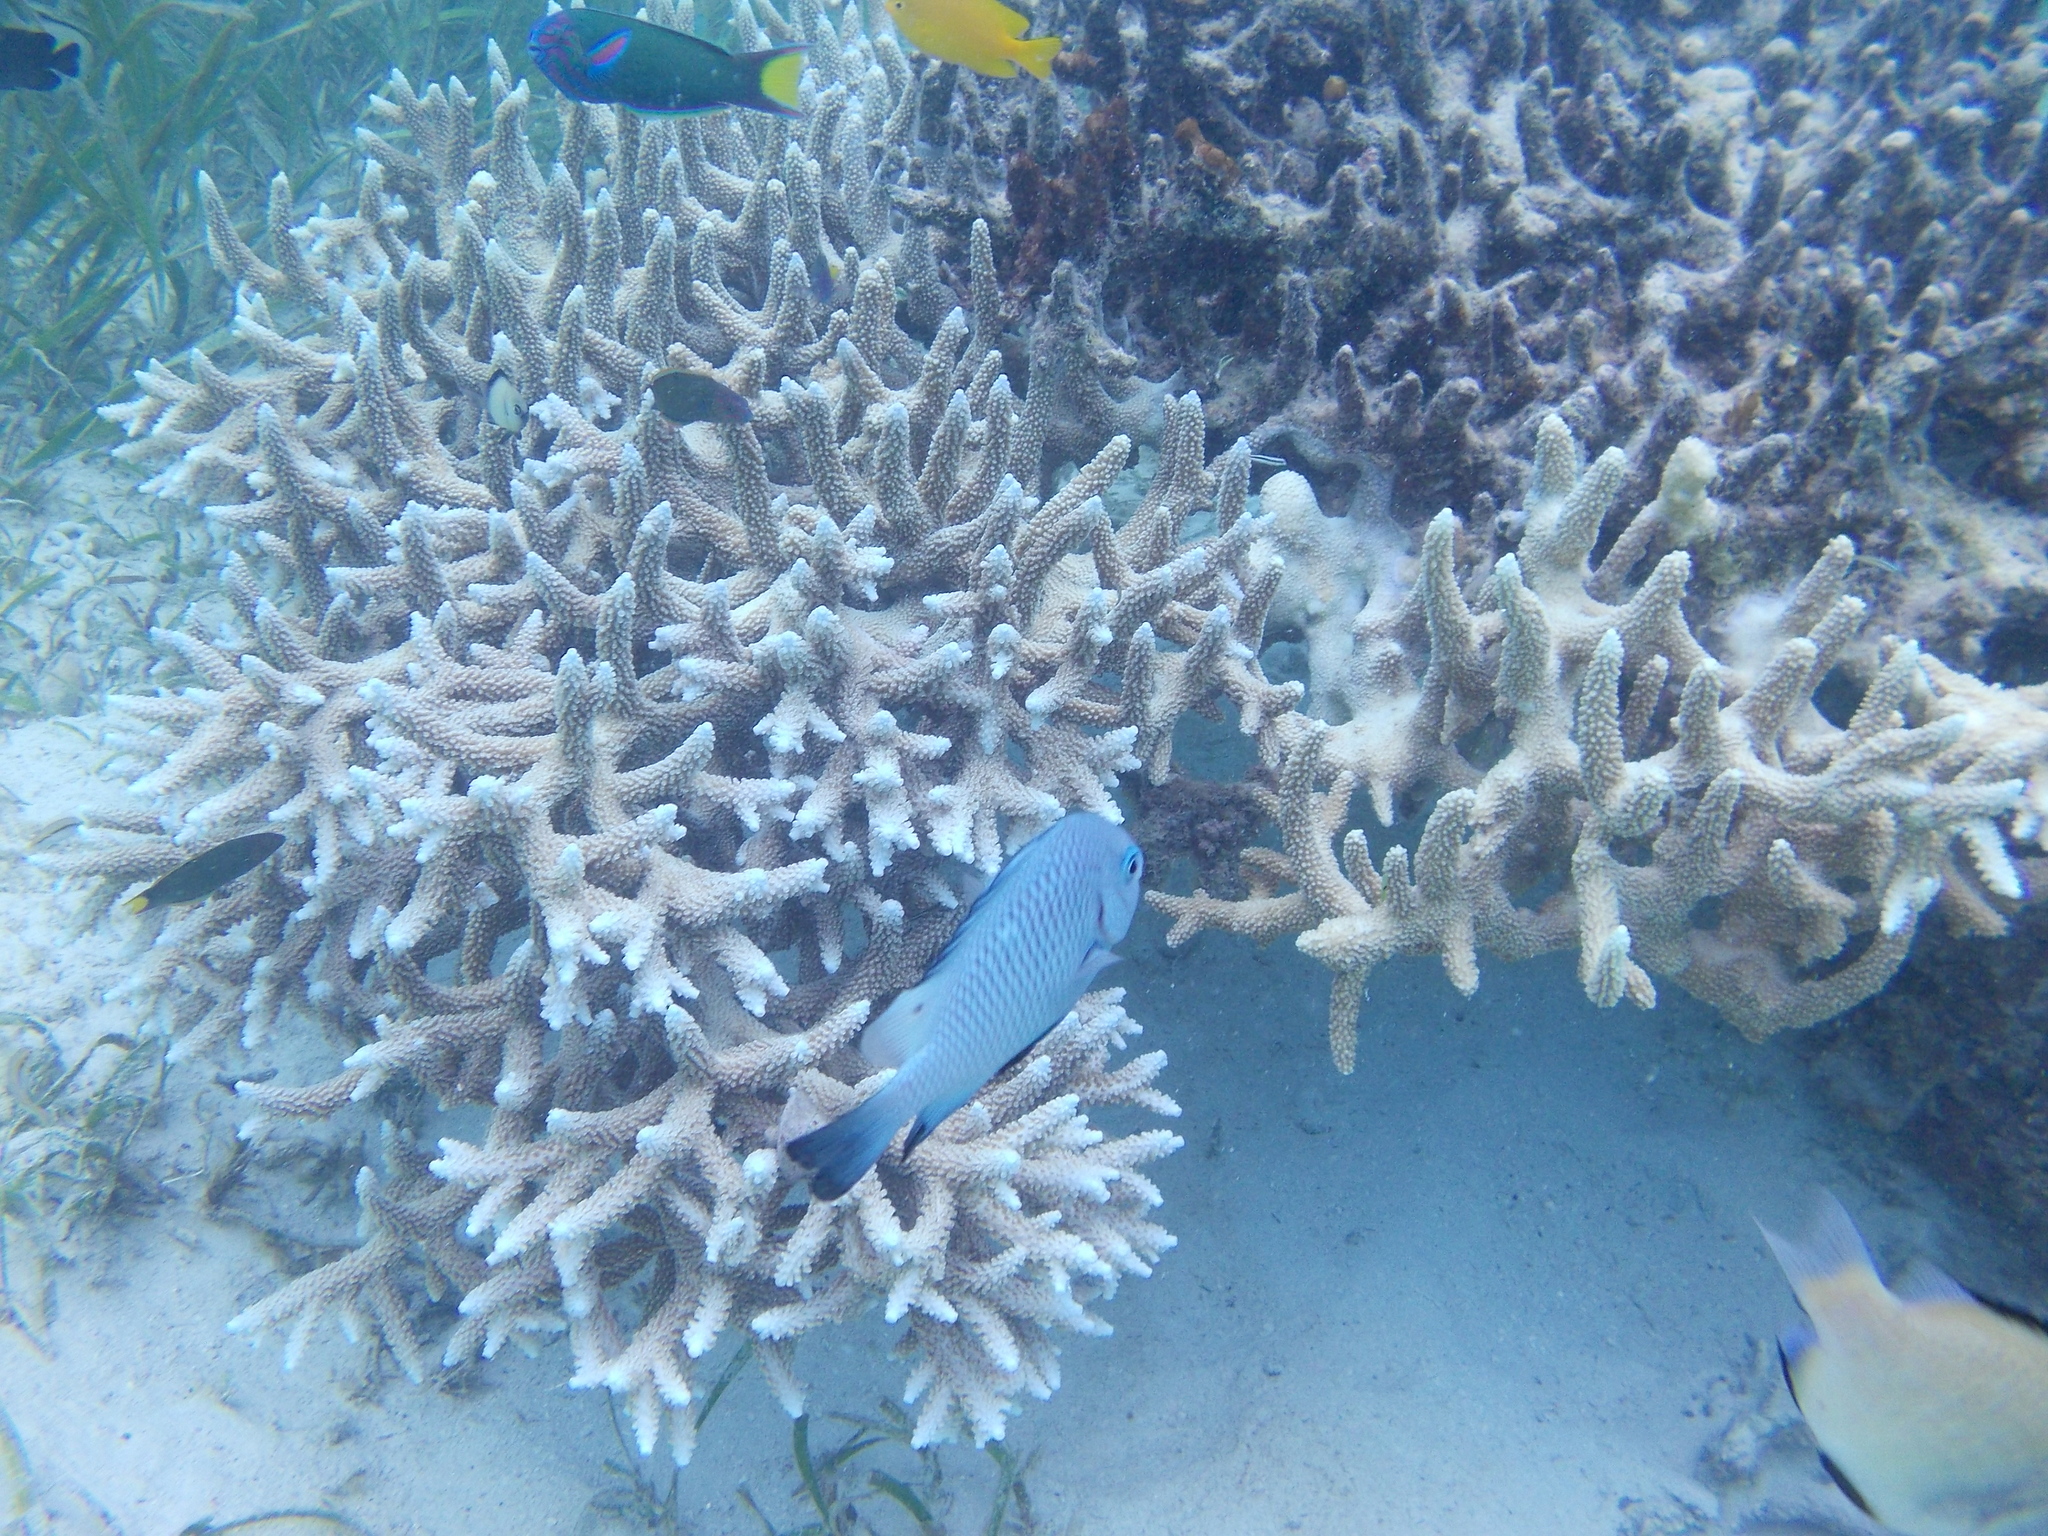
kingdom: Animalia
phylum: Chordata
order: Perciformes
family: Pomacentridae
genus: Dascyllus
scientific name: Dascyllus trimaculatus
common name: Threespot dascyllus
